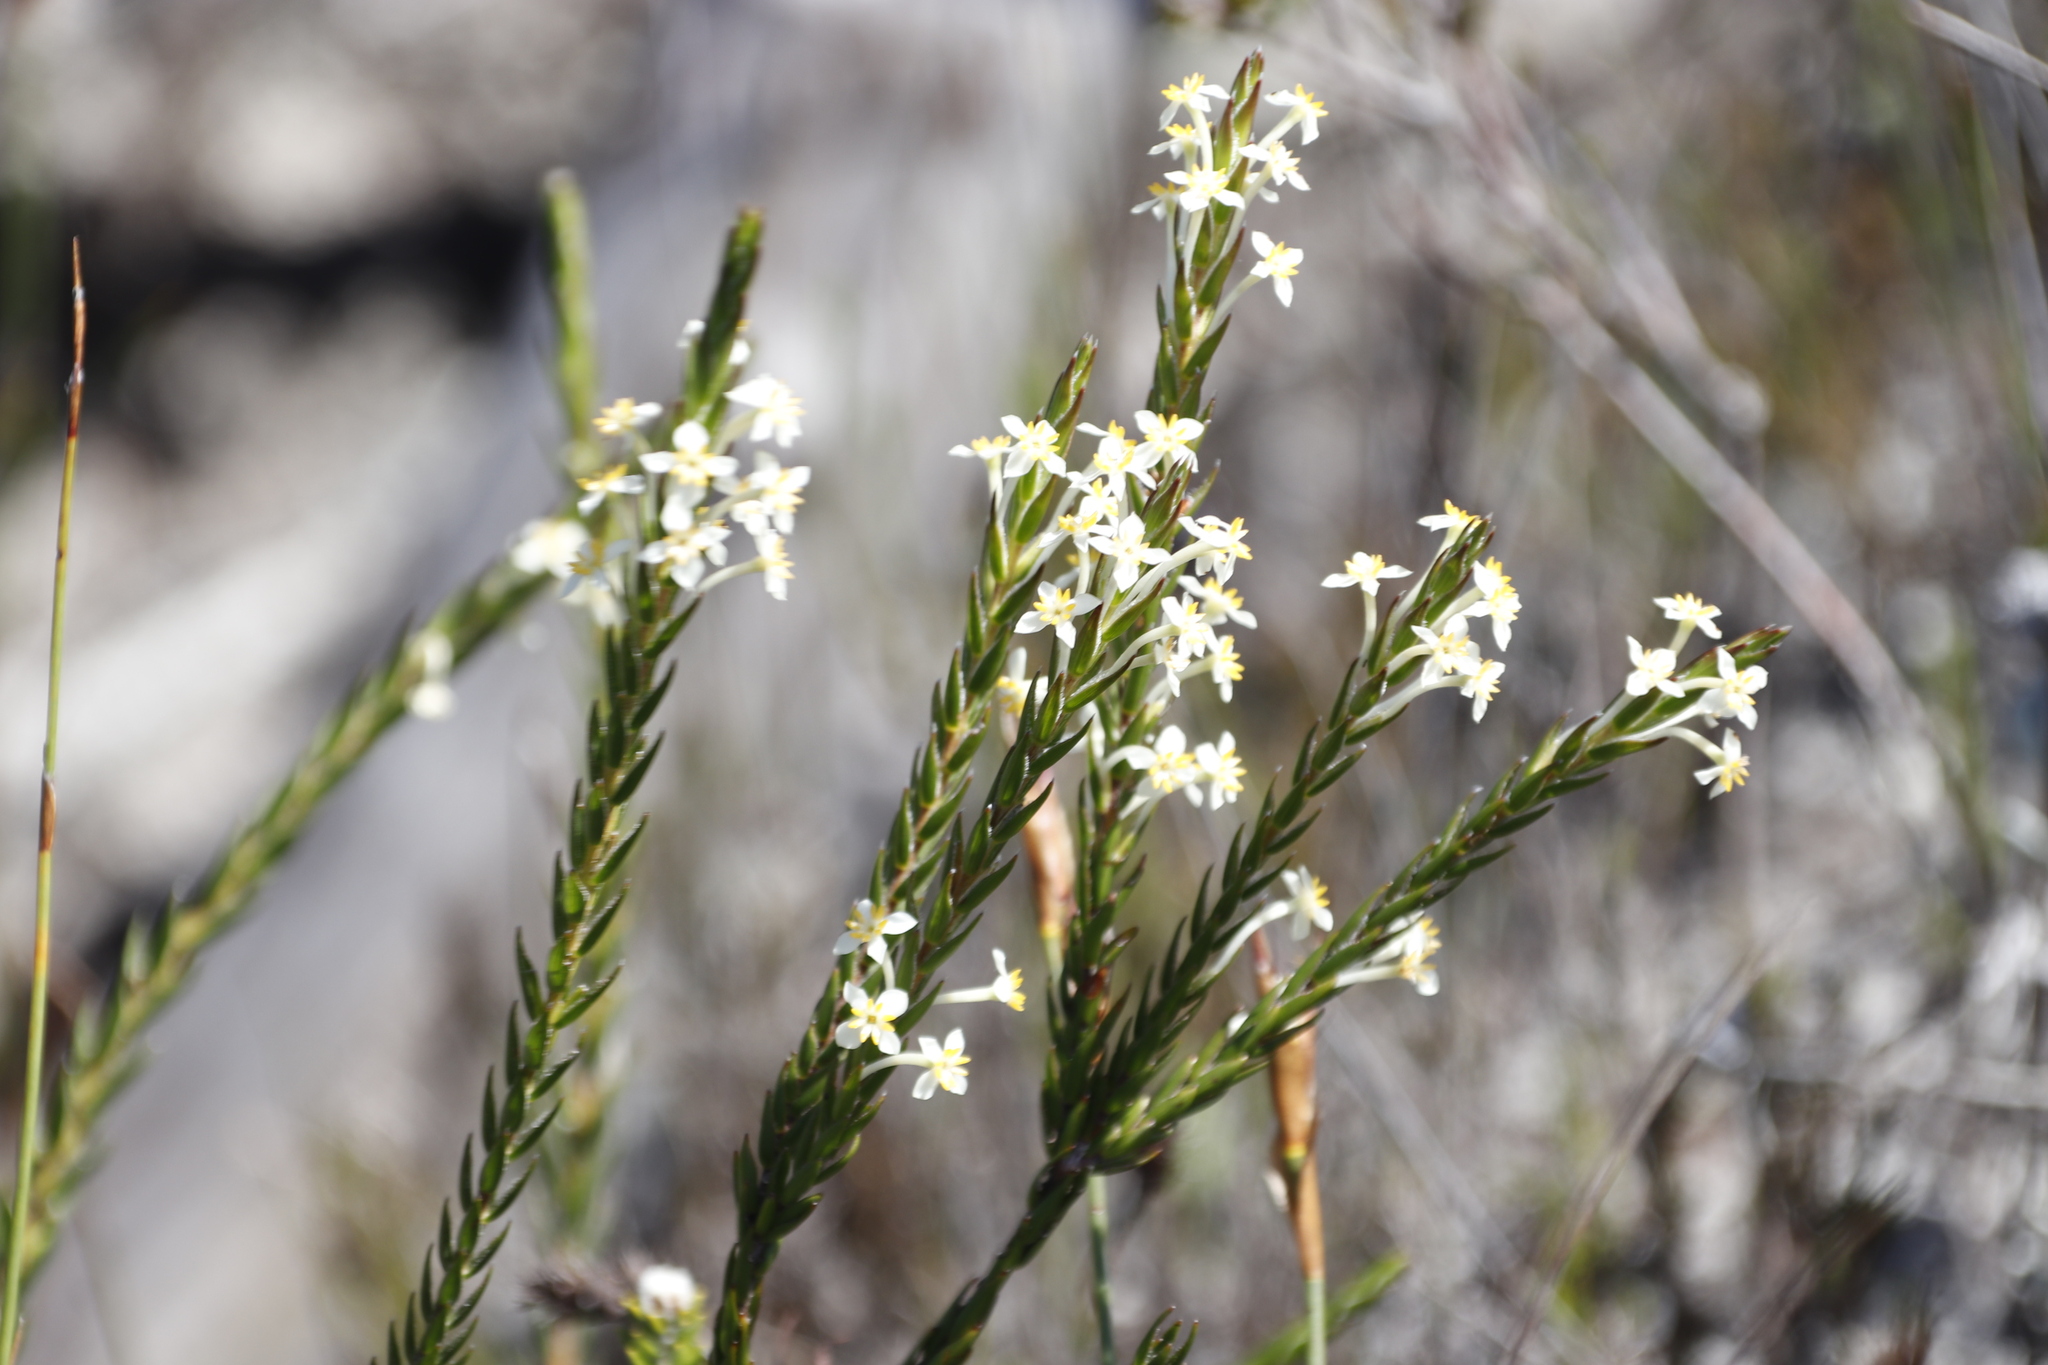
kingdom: Plantae
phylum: Tracheophyta
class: Magnoliopsida
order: Malvales
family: Thymelaeaceae
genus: Struthiola
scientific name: Struthiola ciliata
